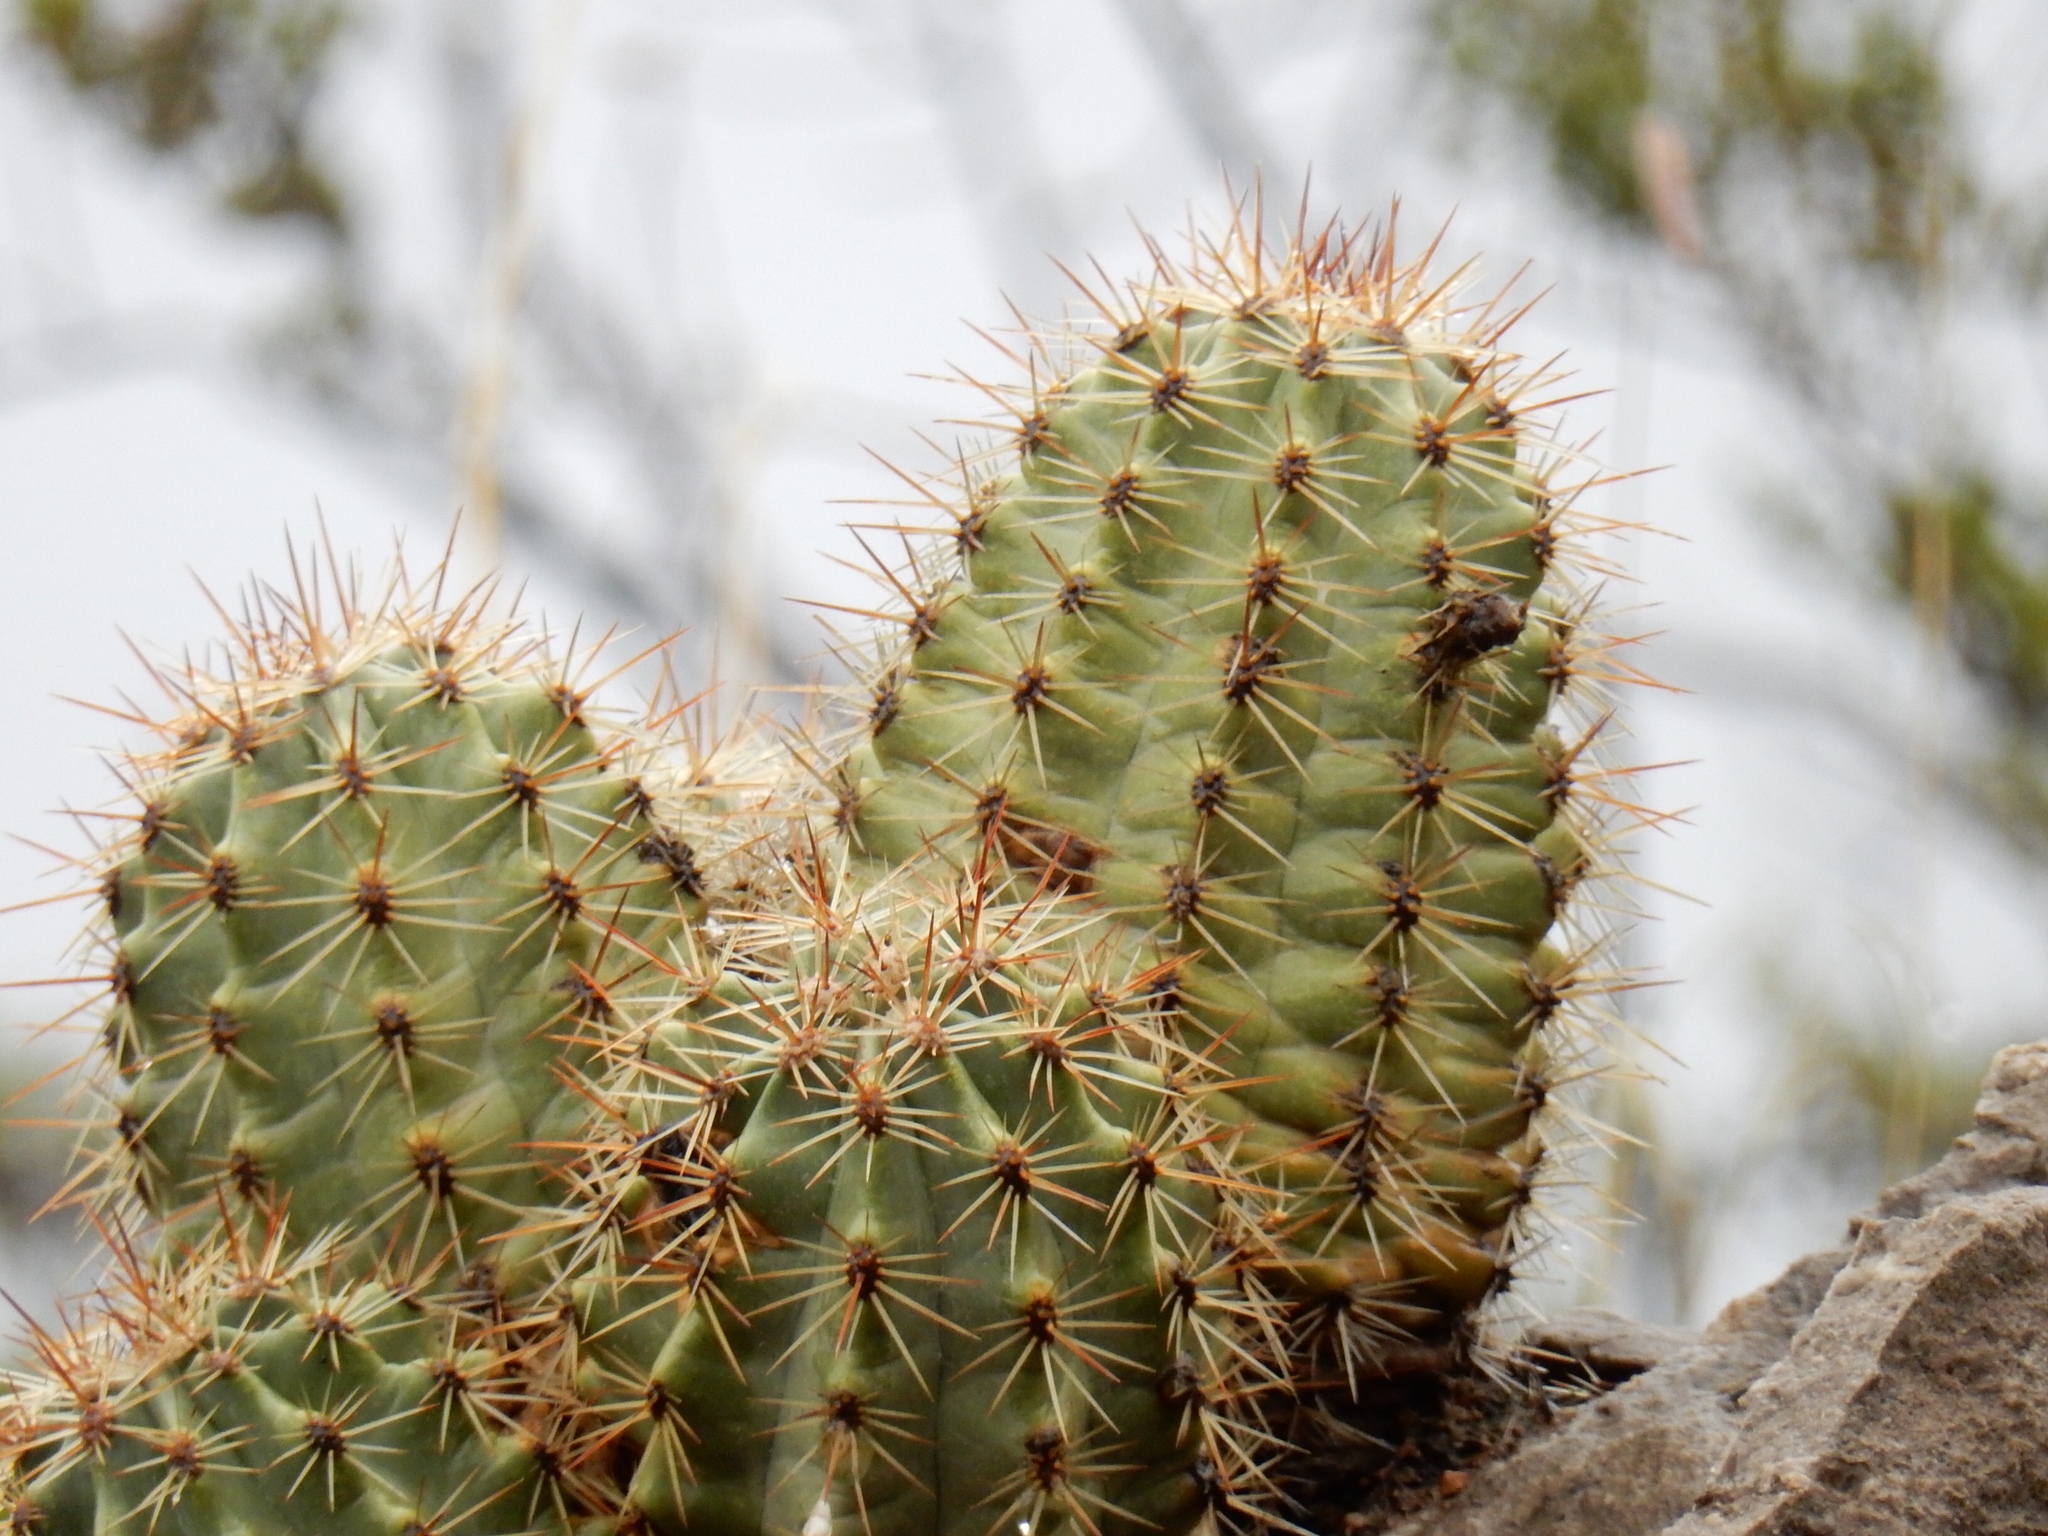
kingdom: Plantae
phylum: Tracheophyta
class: Magnoliopsida
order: Caryophyllales
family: Cactaceae
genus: Echinocereus
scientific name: Echinocereus roetteri
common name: Lloyd's hedgehog cactus
